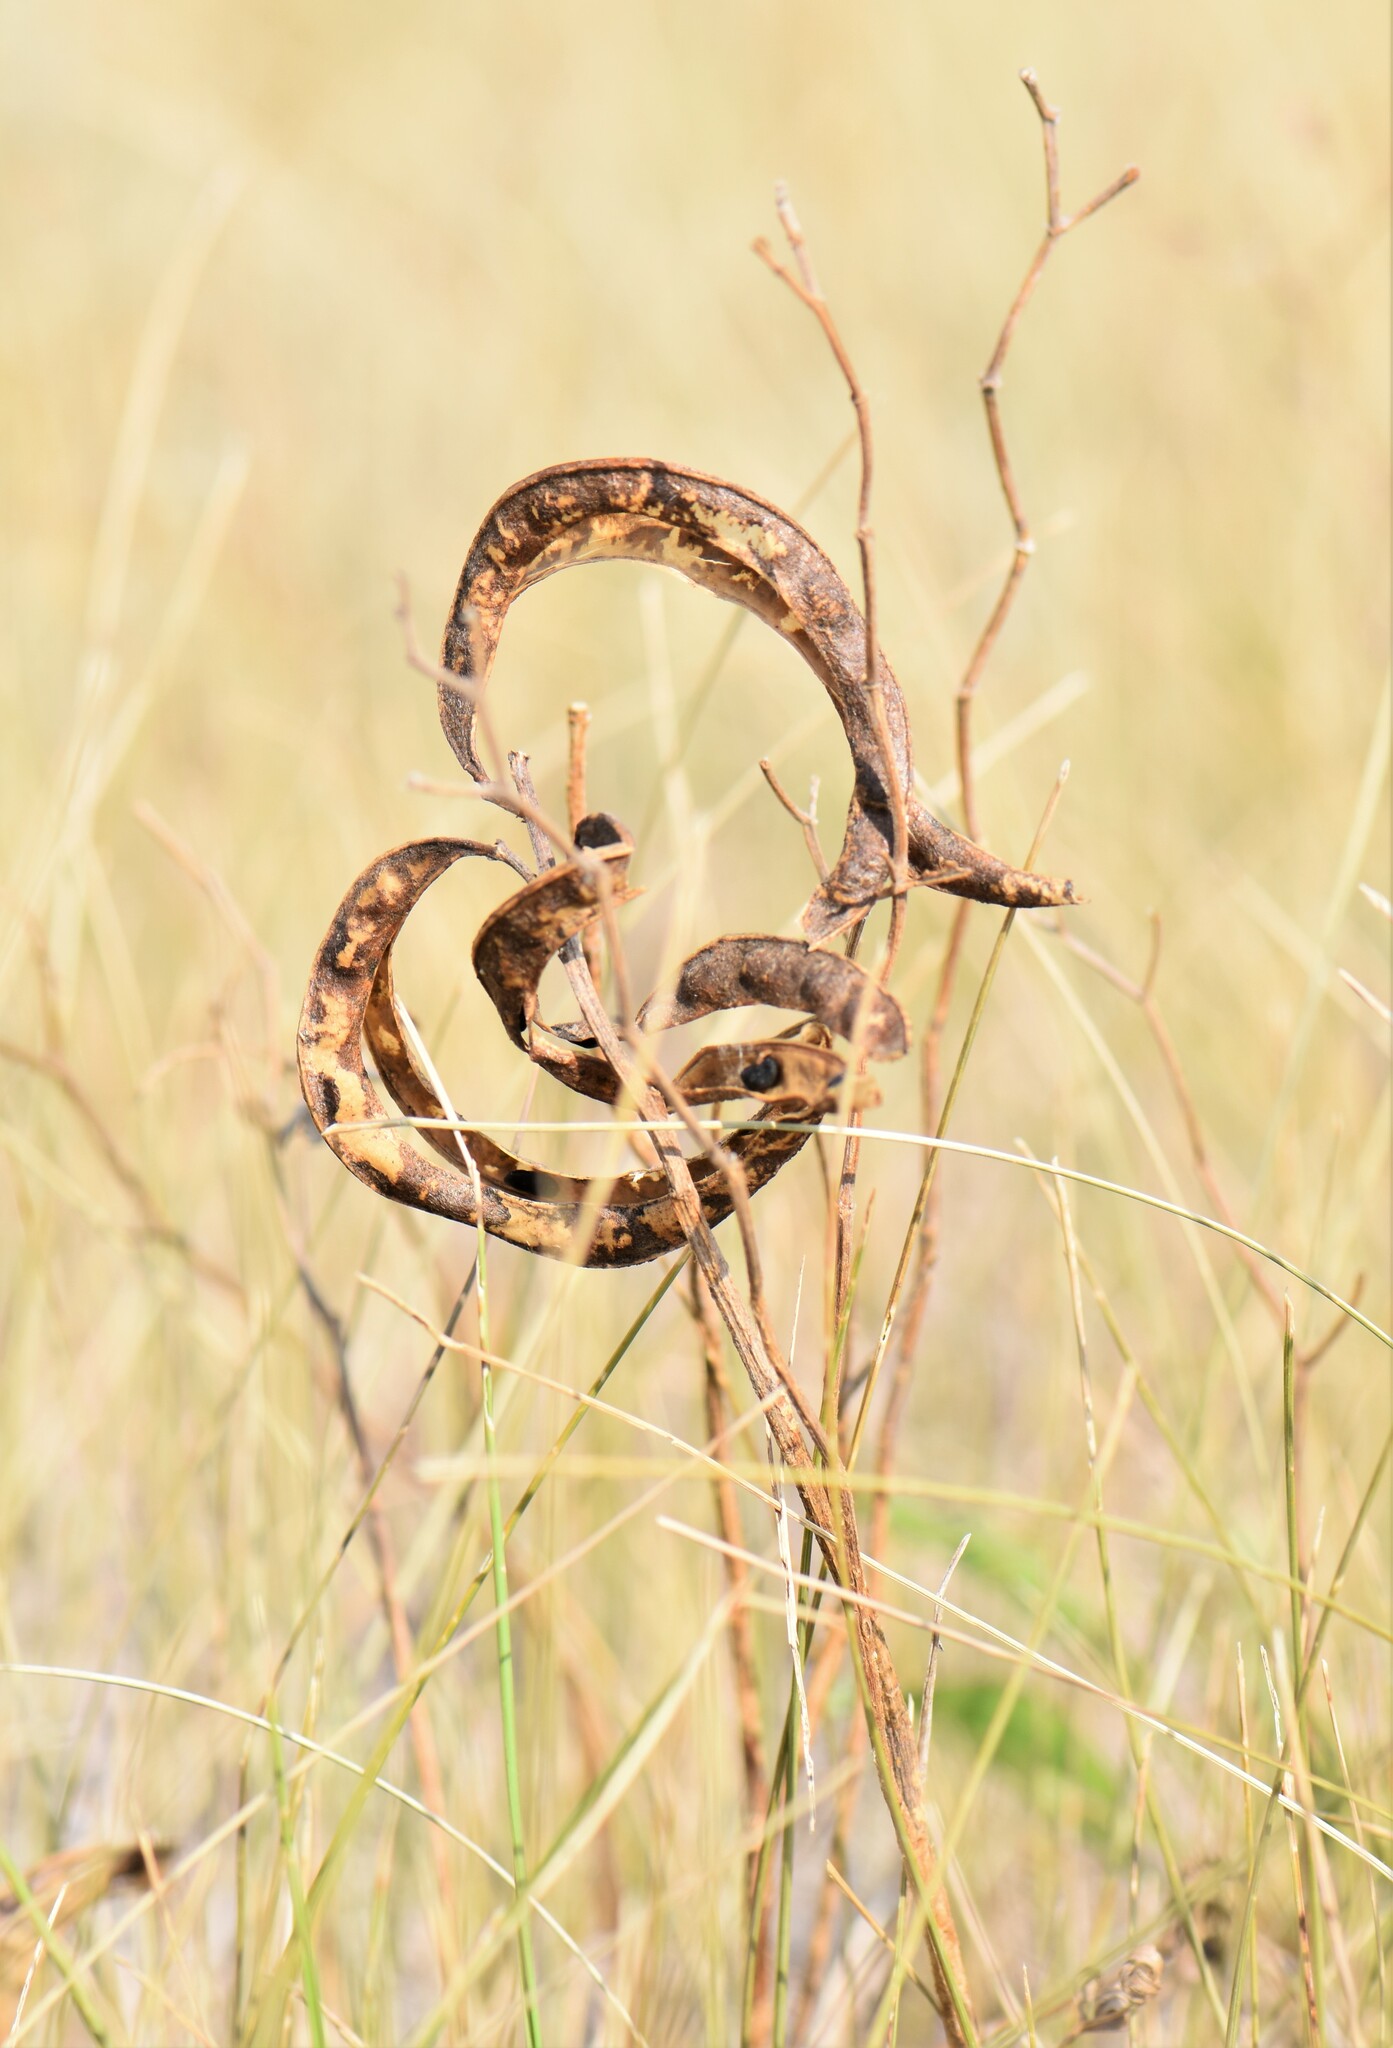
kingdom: Plantae
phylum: Tracheophyta
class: Magnoliopsida
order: Fabales
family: Fabaceae
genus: Thermopsis
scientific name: Thermopsis rhombifolia
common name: Circle-pod-pea
